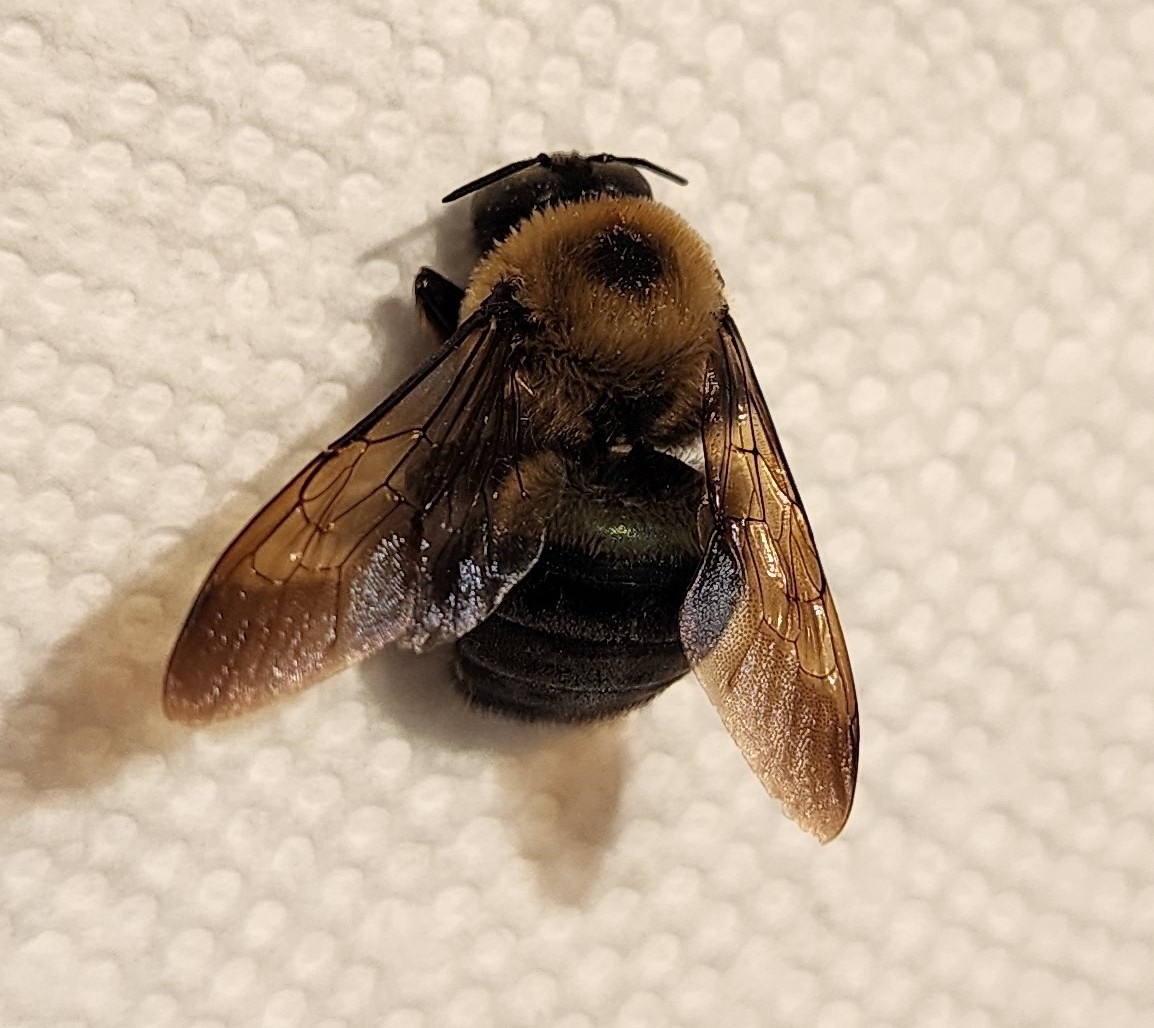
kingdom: Animalia
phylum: Arthropoda
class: Insecta
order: Hymenoptera
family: Apidae
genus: Xylocopa
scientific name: Xylocopa virginica
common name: Carpenter bee
